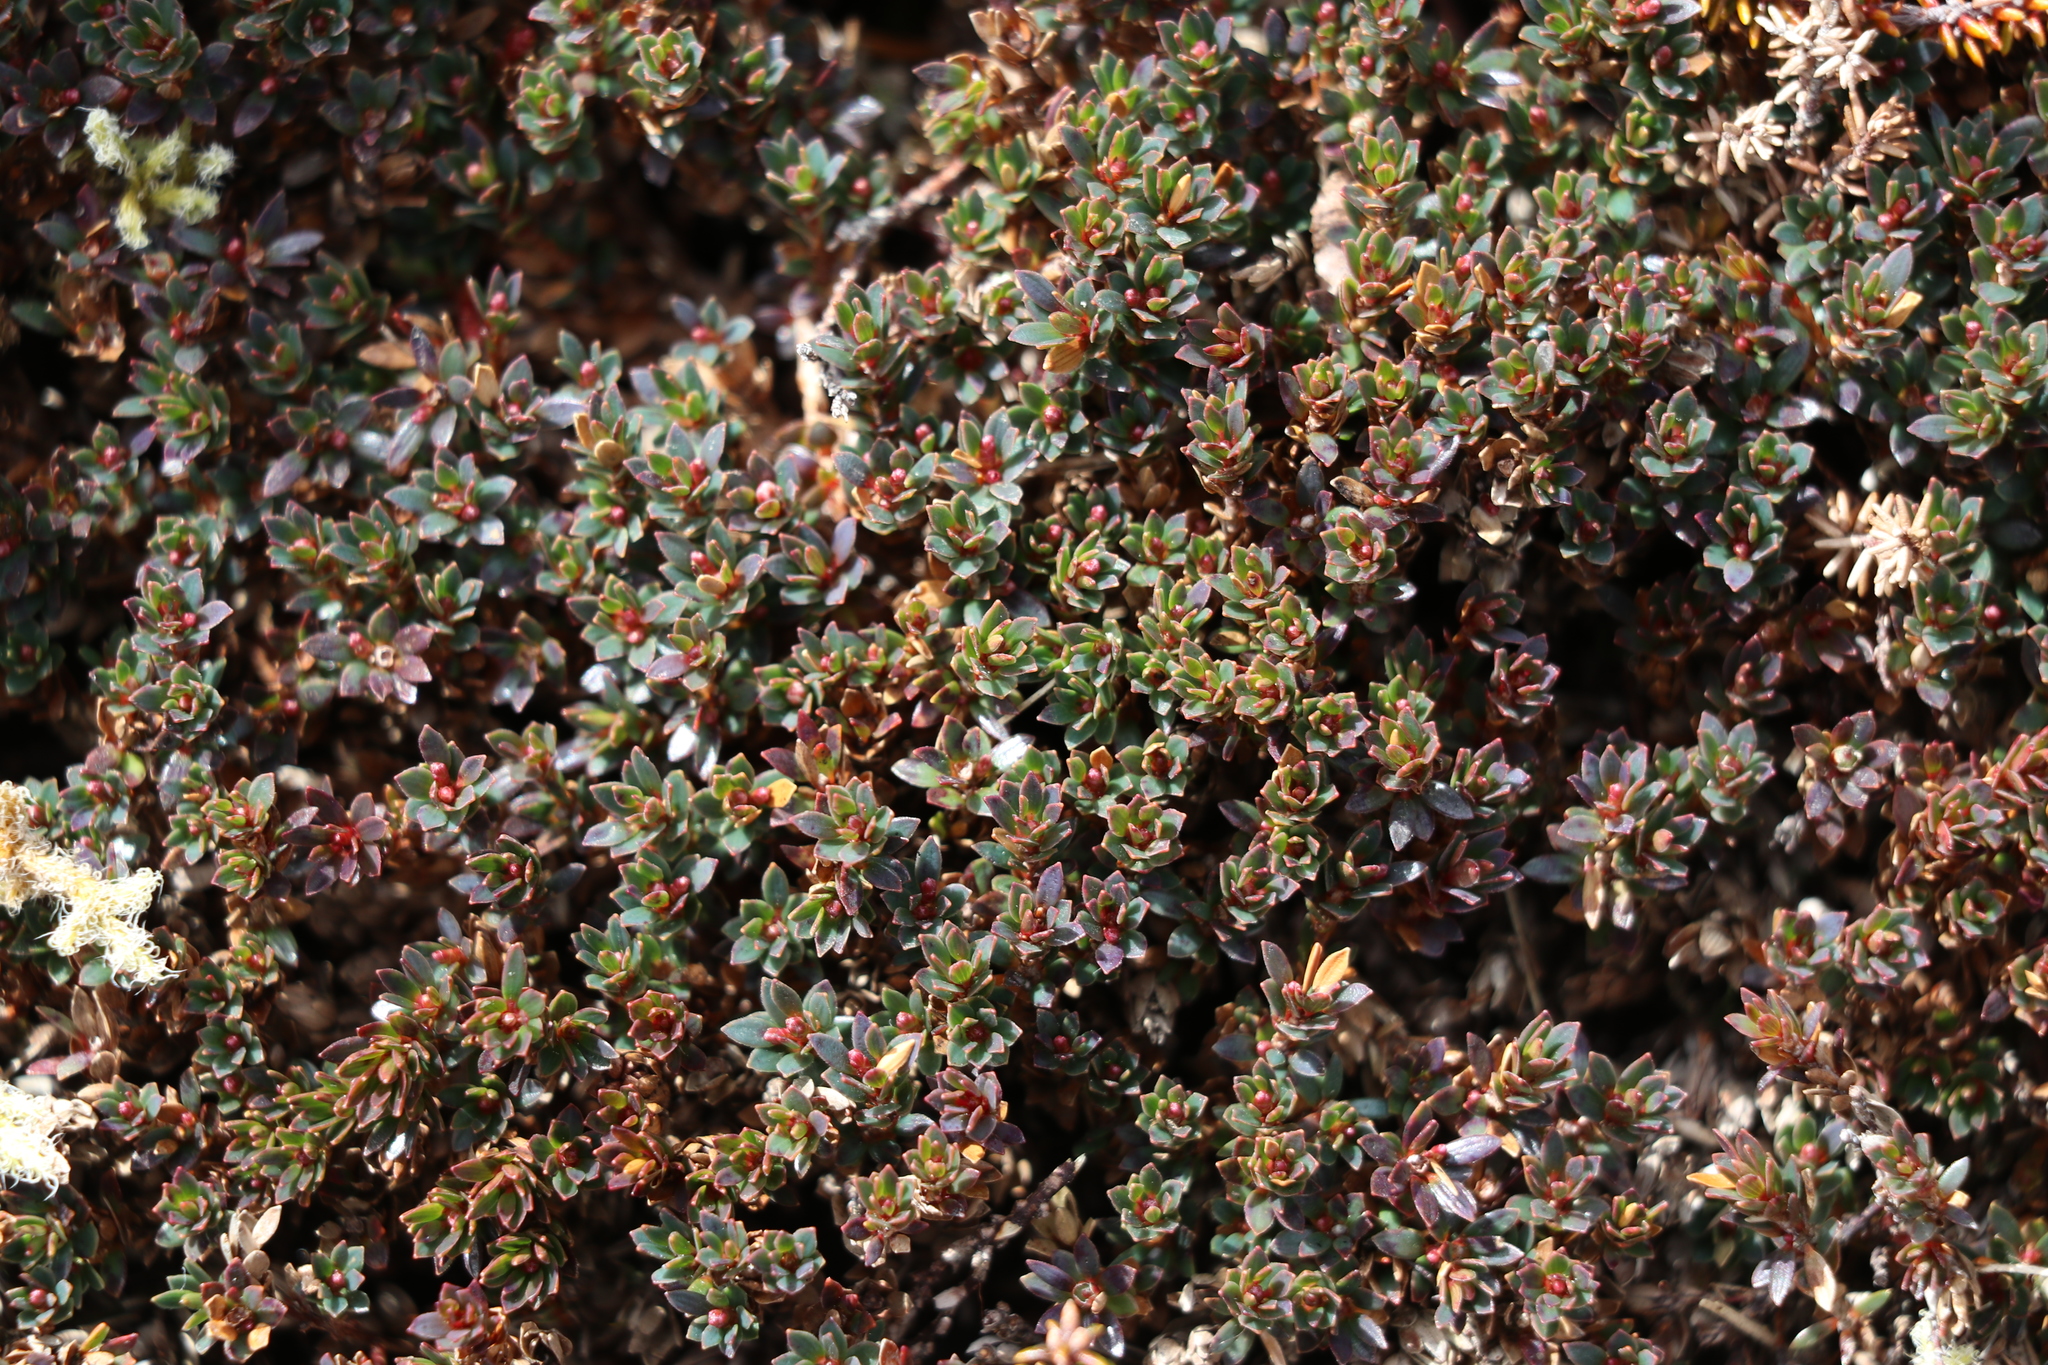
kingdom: Plantae
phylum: Tracheophyta
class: Magnoliopsida
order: Ericales
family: Ericaceae
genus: Pentachondra
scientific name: Pentachondra pumila
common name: Carpet-heath
